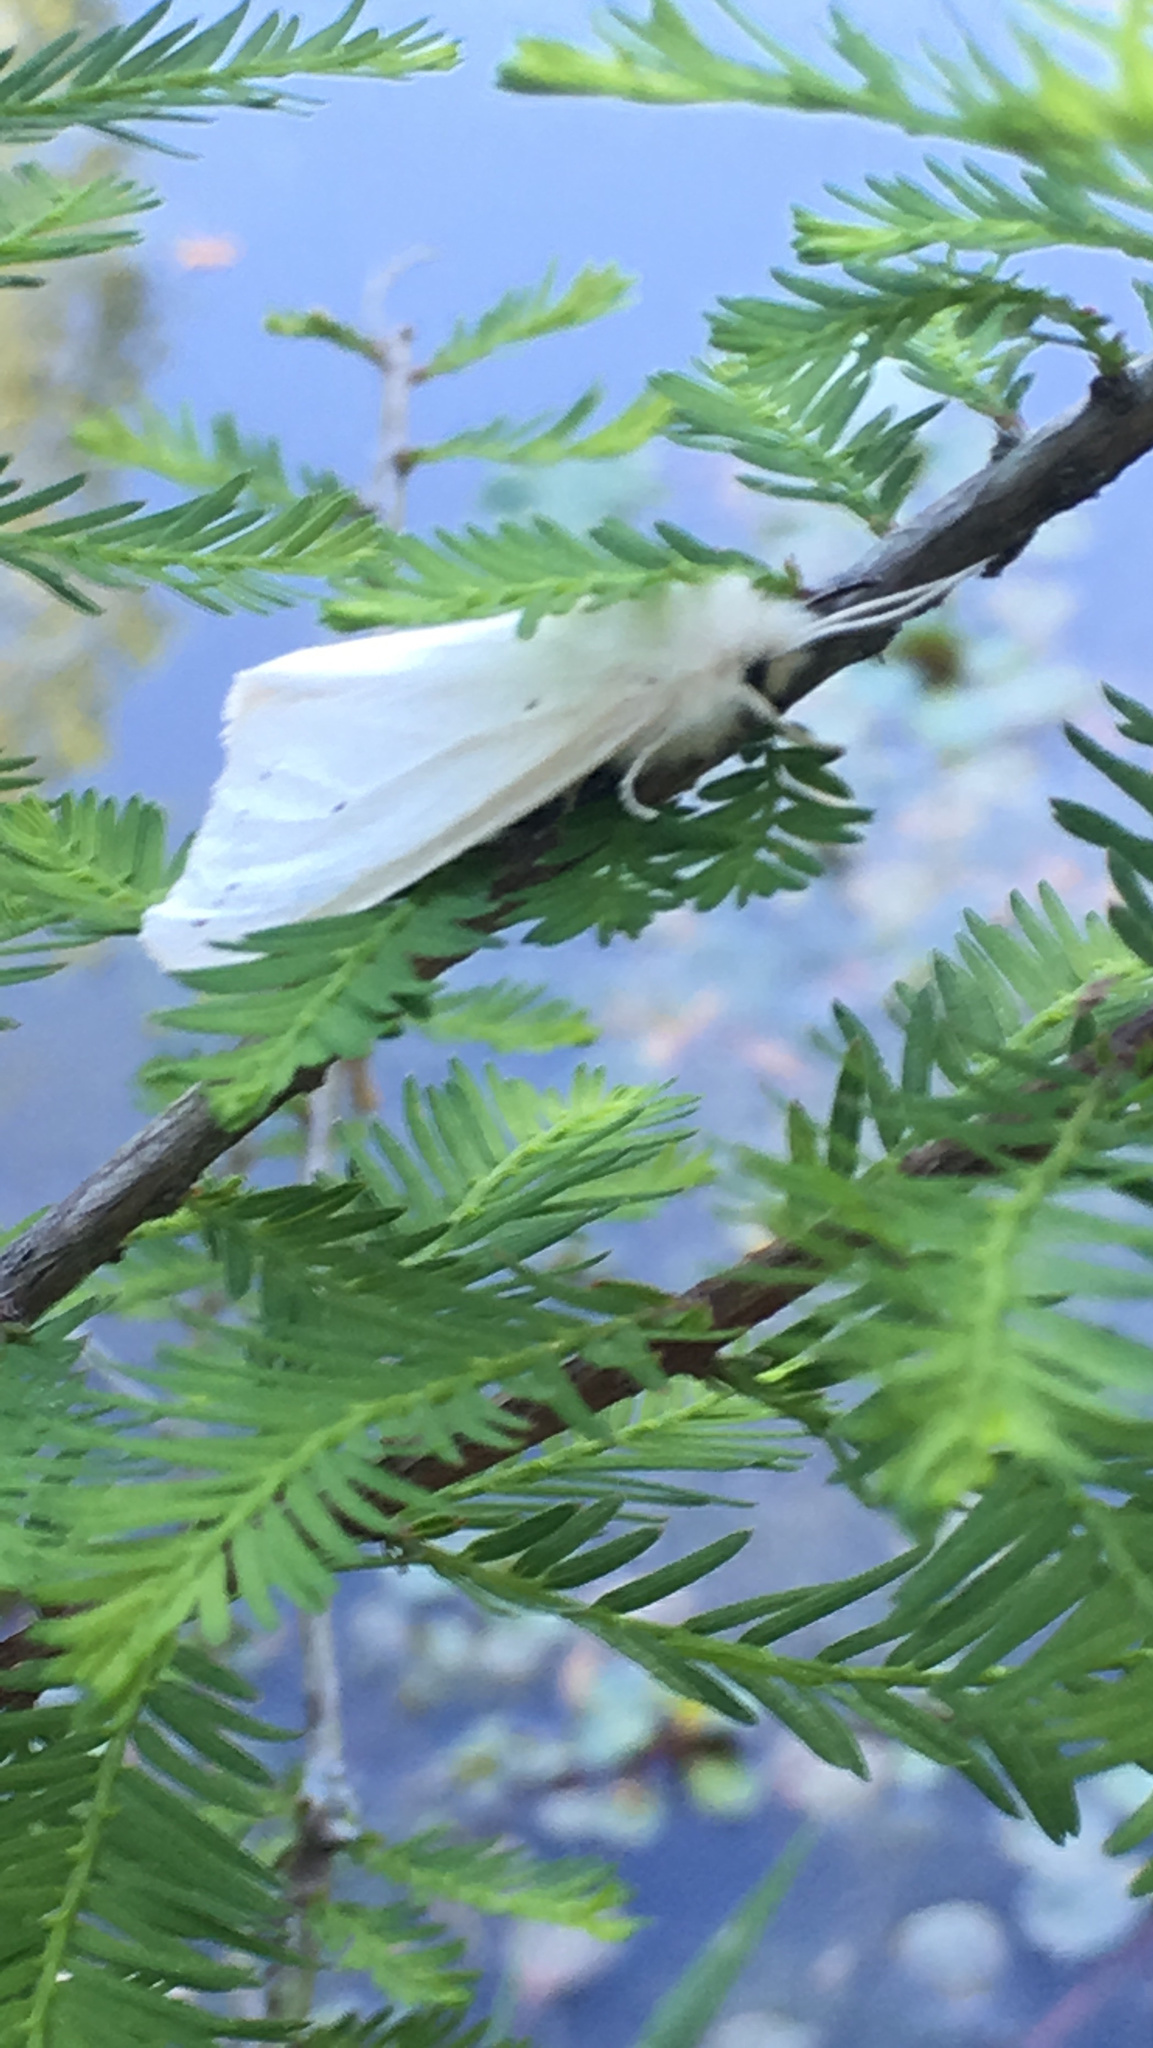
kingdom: Animalia
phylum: Arthropoda
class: Insecta
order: Lepidoptera
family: Erebidae
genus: Spilosoma
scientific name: Spilosoma virginica
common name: Virginia tiger moth
